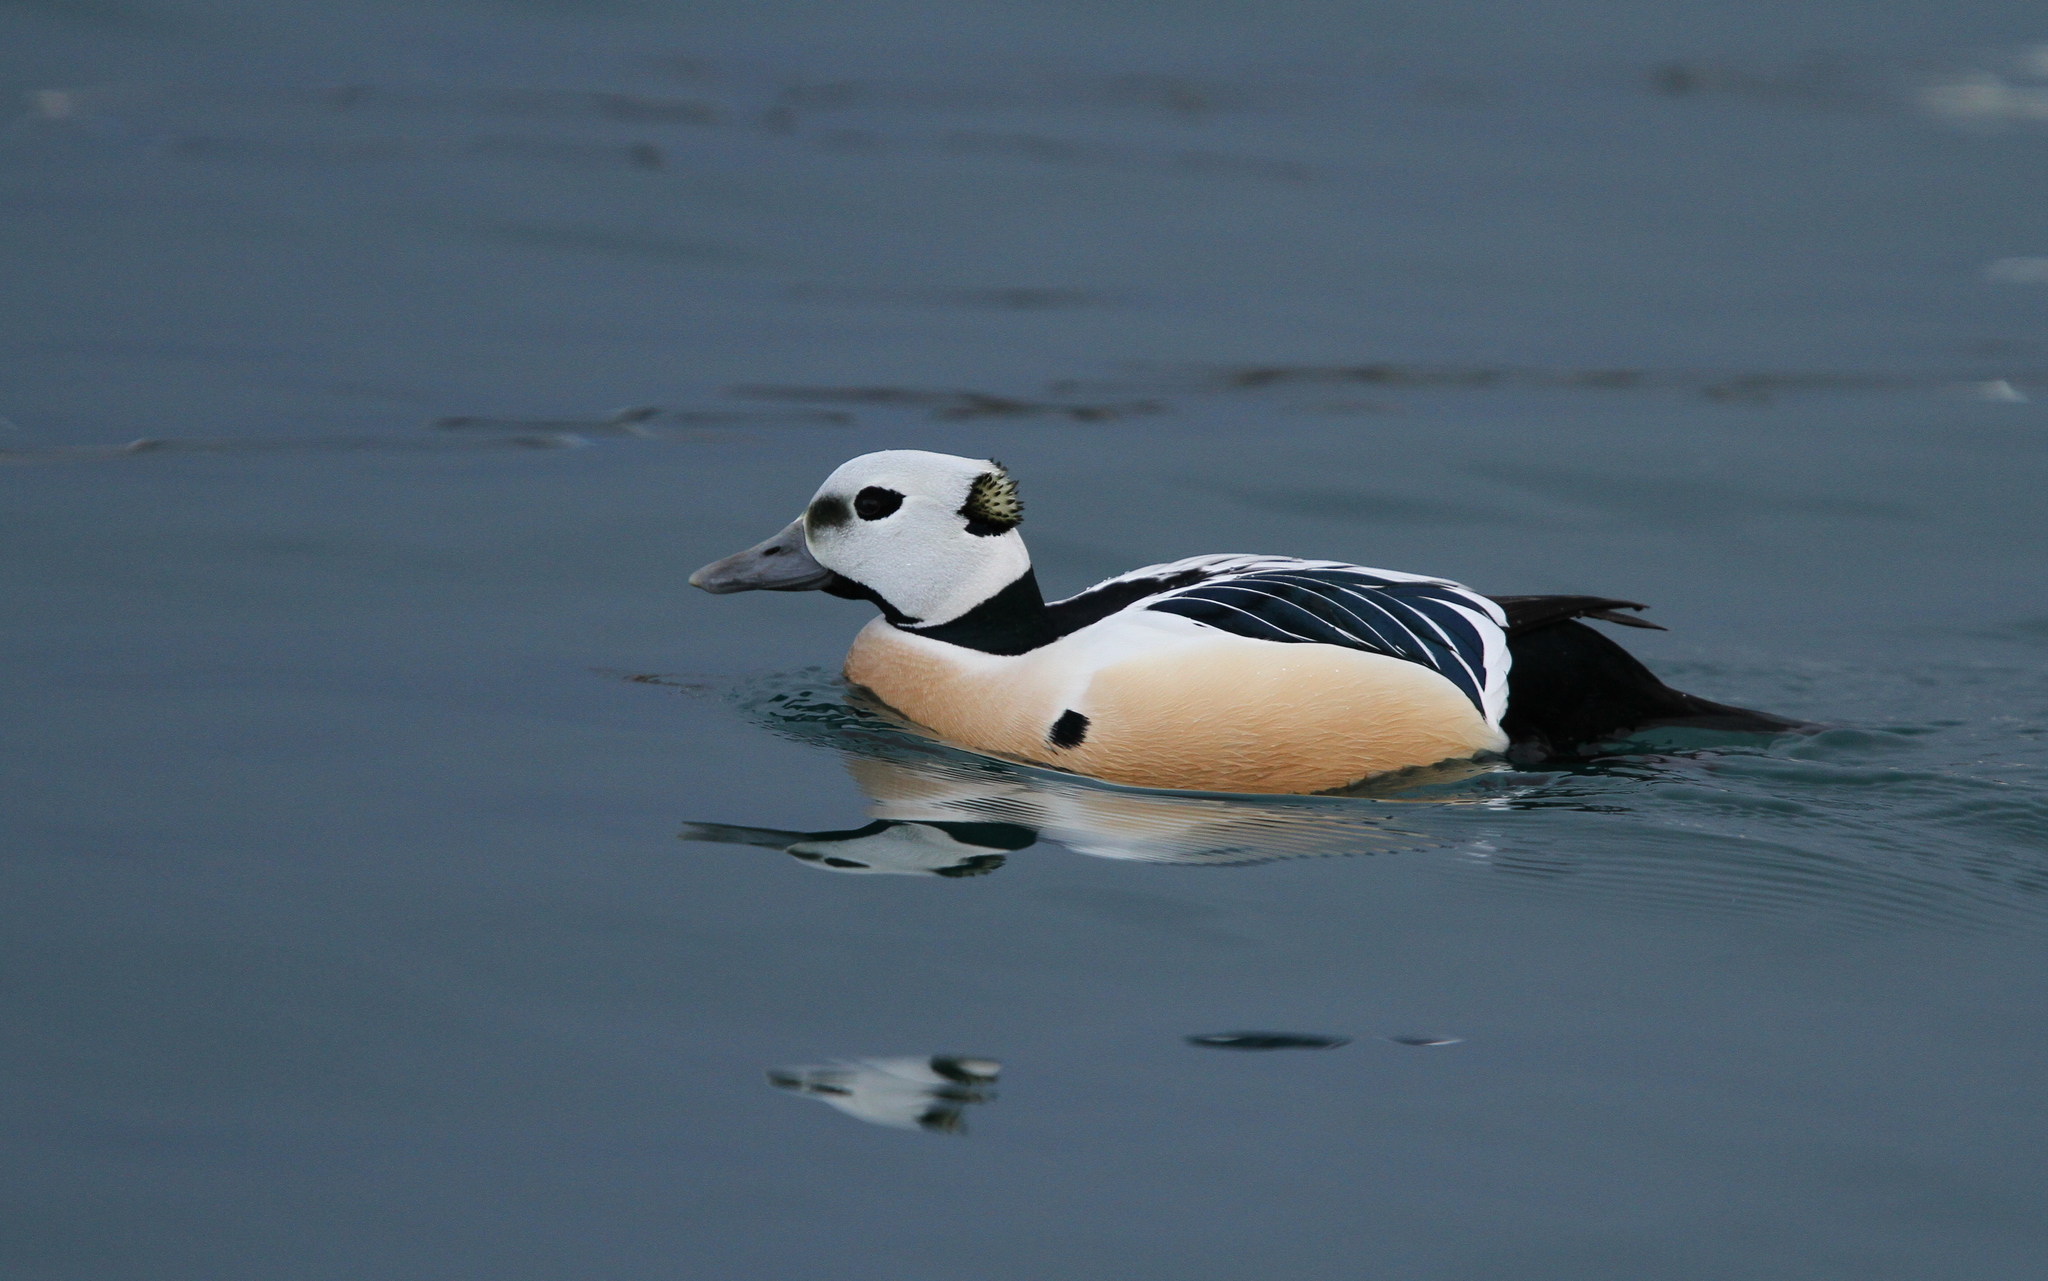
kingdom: Animalia
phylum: Chordata
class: Aves
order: Anseriformes
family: Anatidae
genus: Polysticta
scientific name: Polysticta stelleri
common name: Steller's eider
